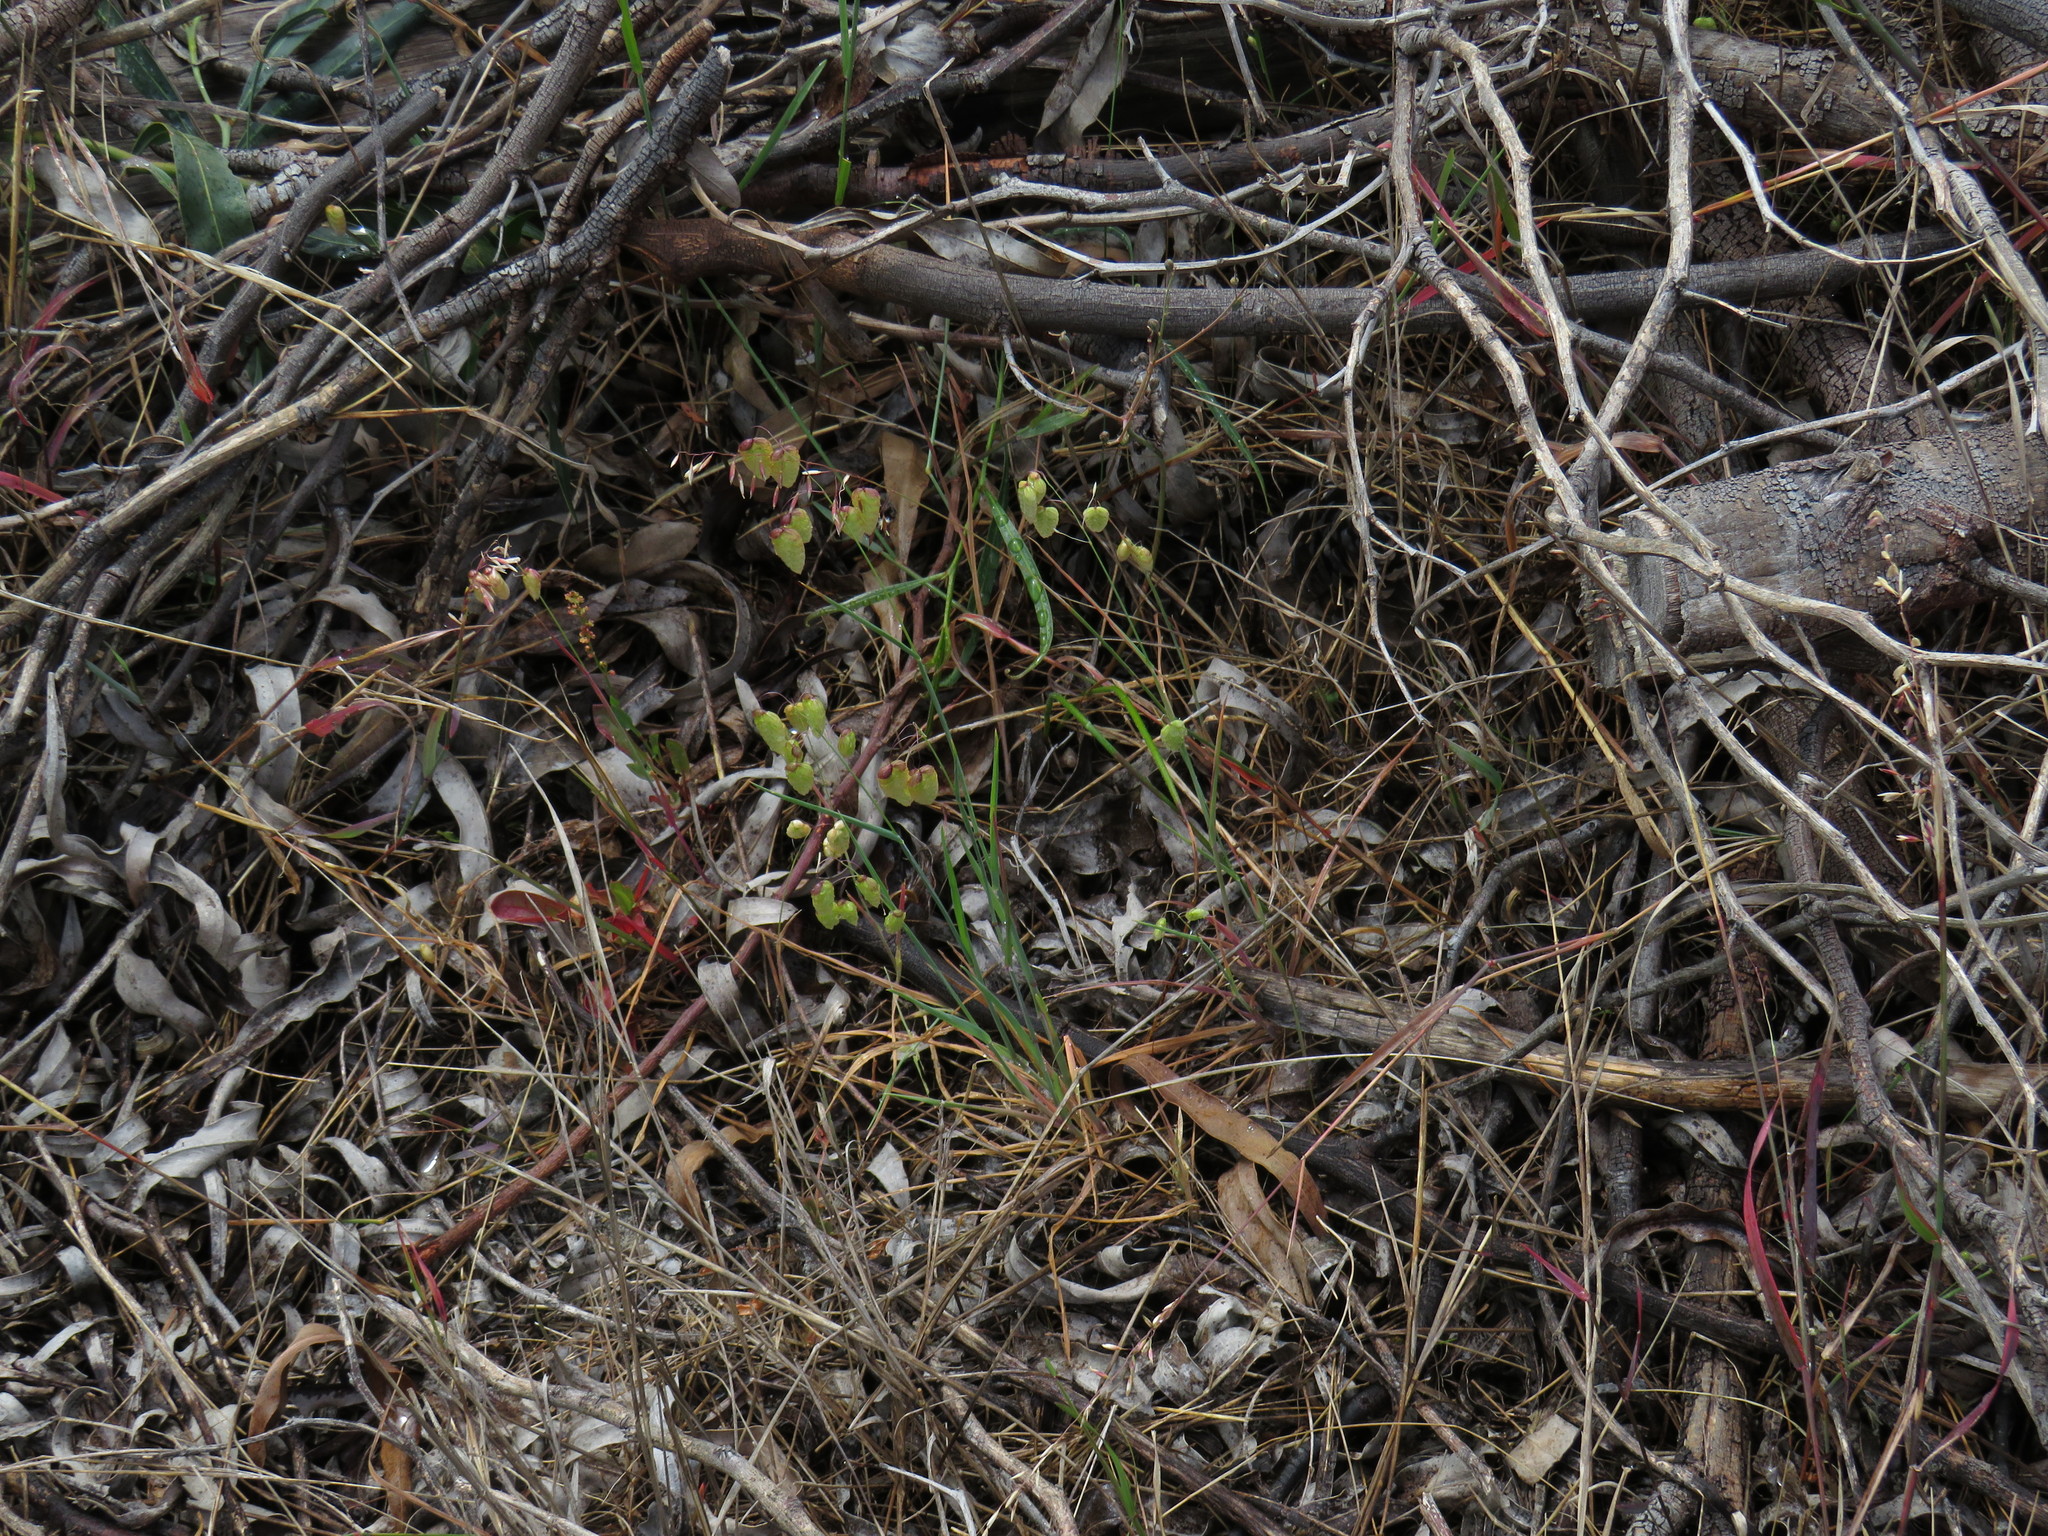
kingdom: Plantae
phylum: Tracheophyta
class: Liliopsida
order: Poales
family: Poaceae
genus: Briza
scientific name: Briza maxima
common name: Big quakinggrass
